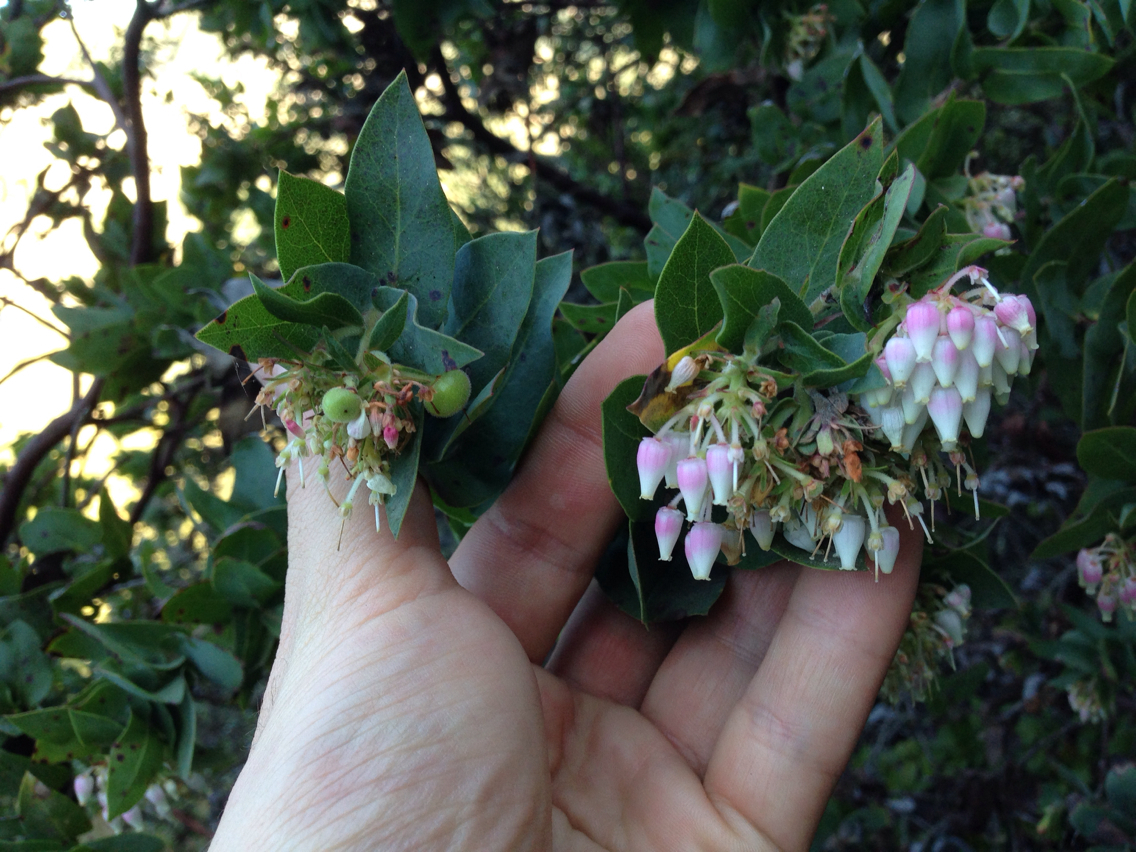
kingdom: Plantae
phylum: Tracheophyta
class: Magnoliopsida
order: Ericales
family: Ericaceae
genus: Arctostaphylos
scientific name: Arctostaphylos pallida
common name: Pallid manzanita
